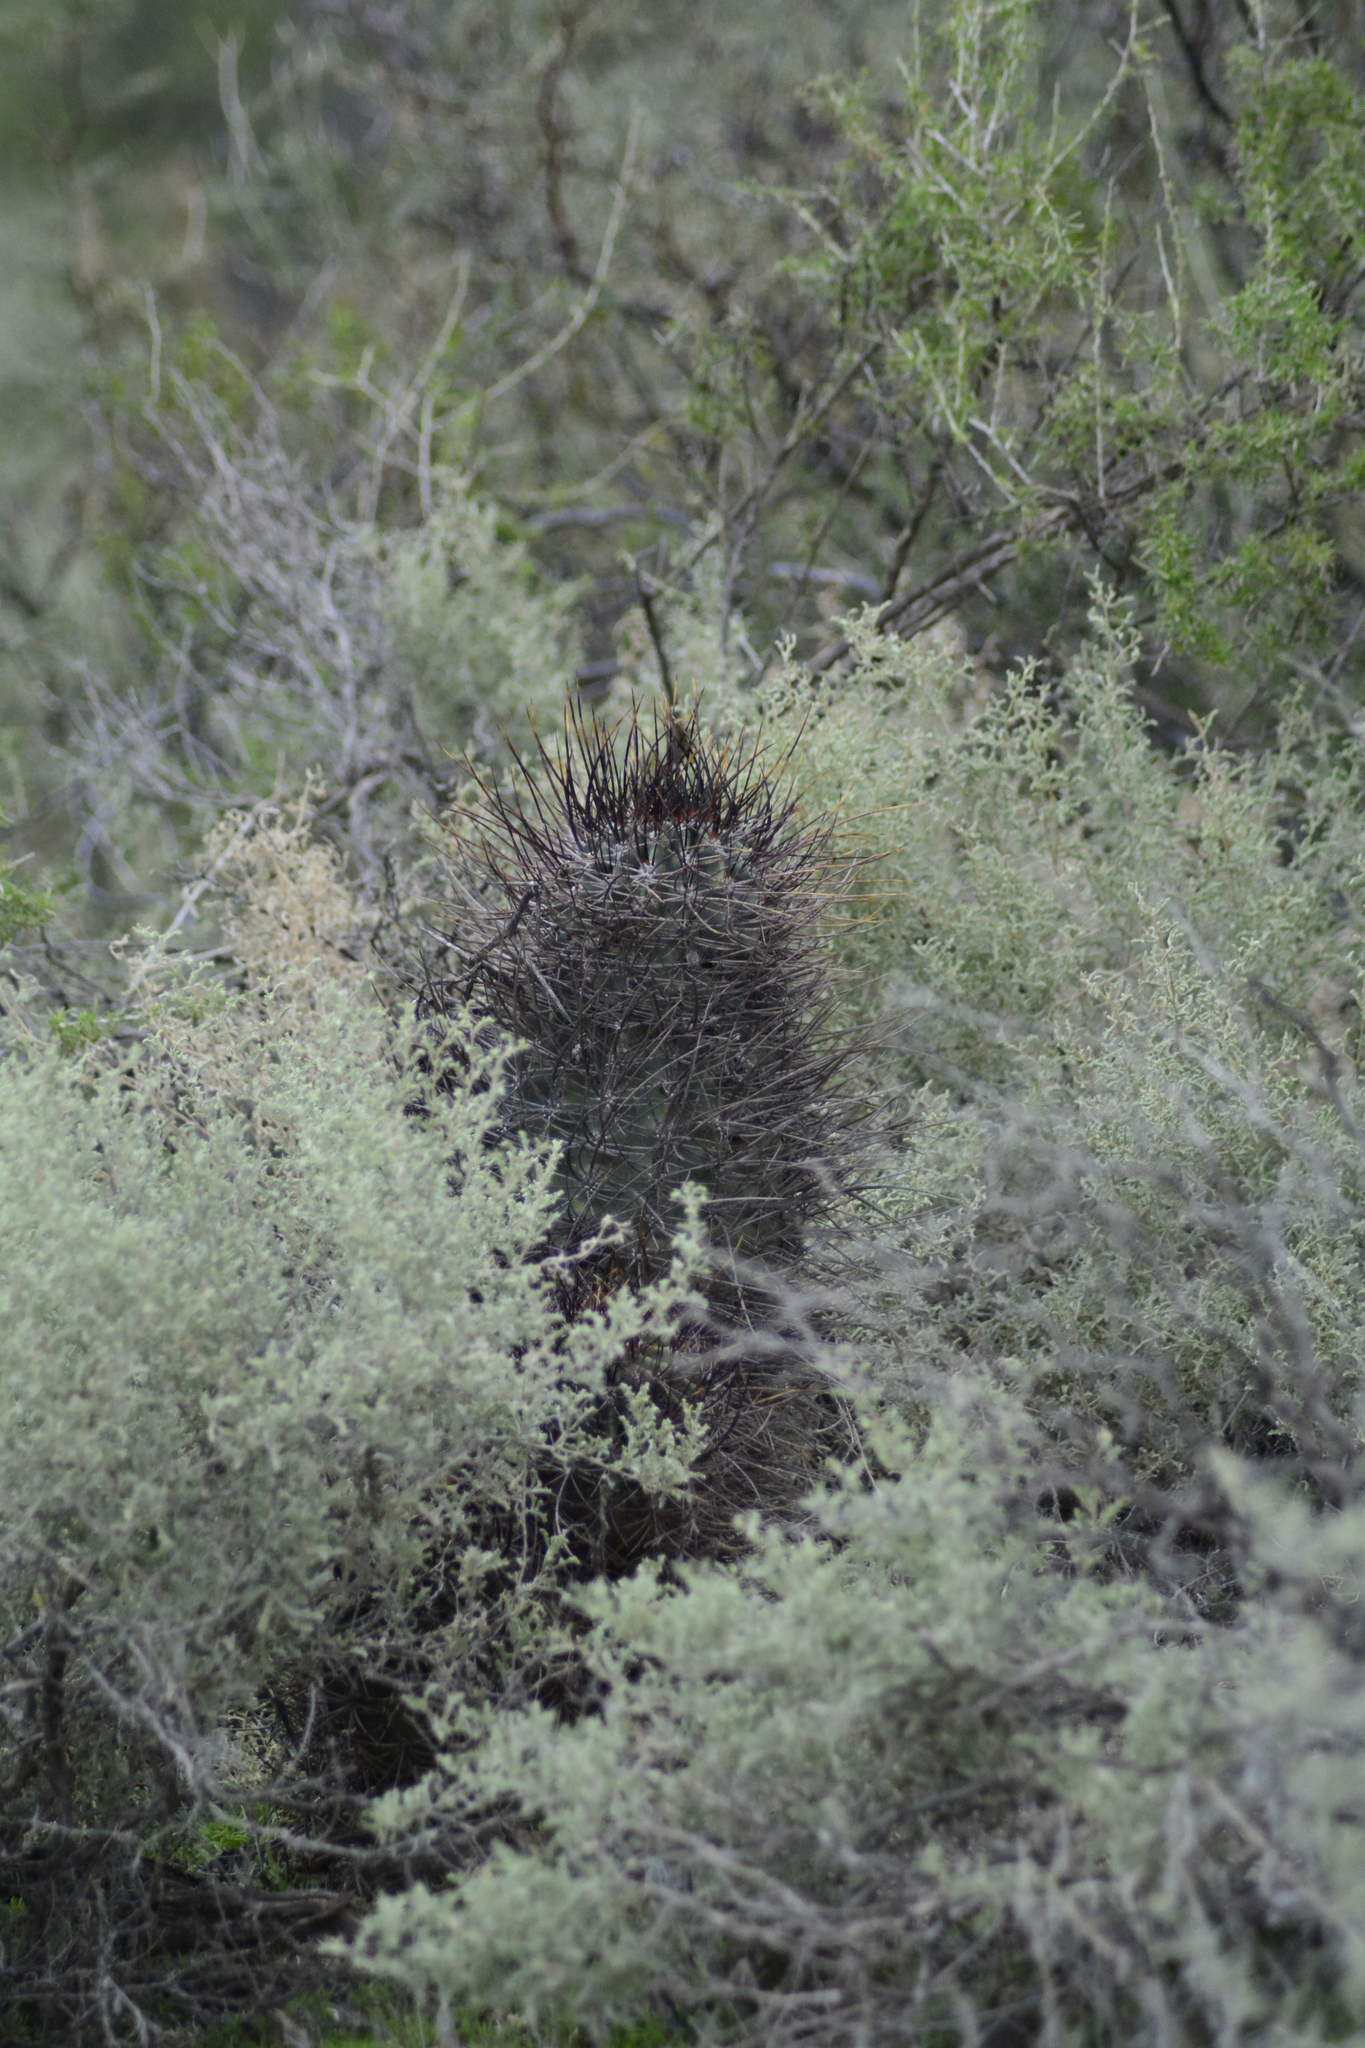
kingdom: Plantae
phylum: Tracheophyta
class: Magnoliopsida
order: Caryophyllales
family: Cactaceae
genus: Acanthocalycium
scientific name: Acanthocalycium leucanthum
